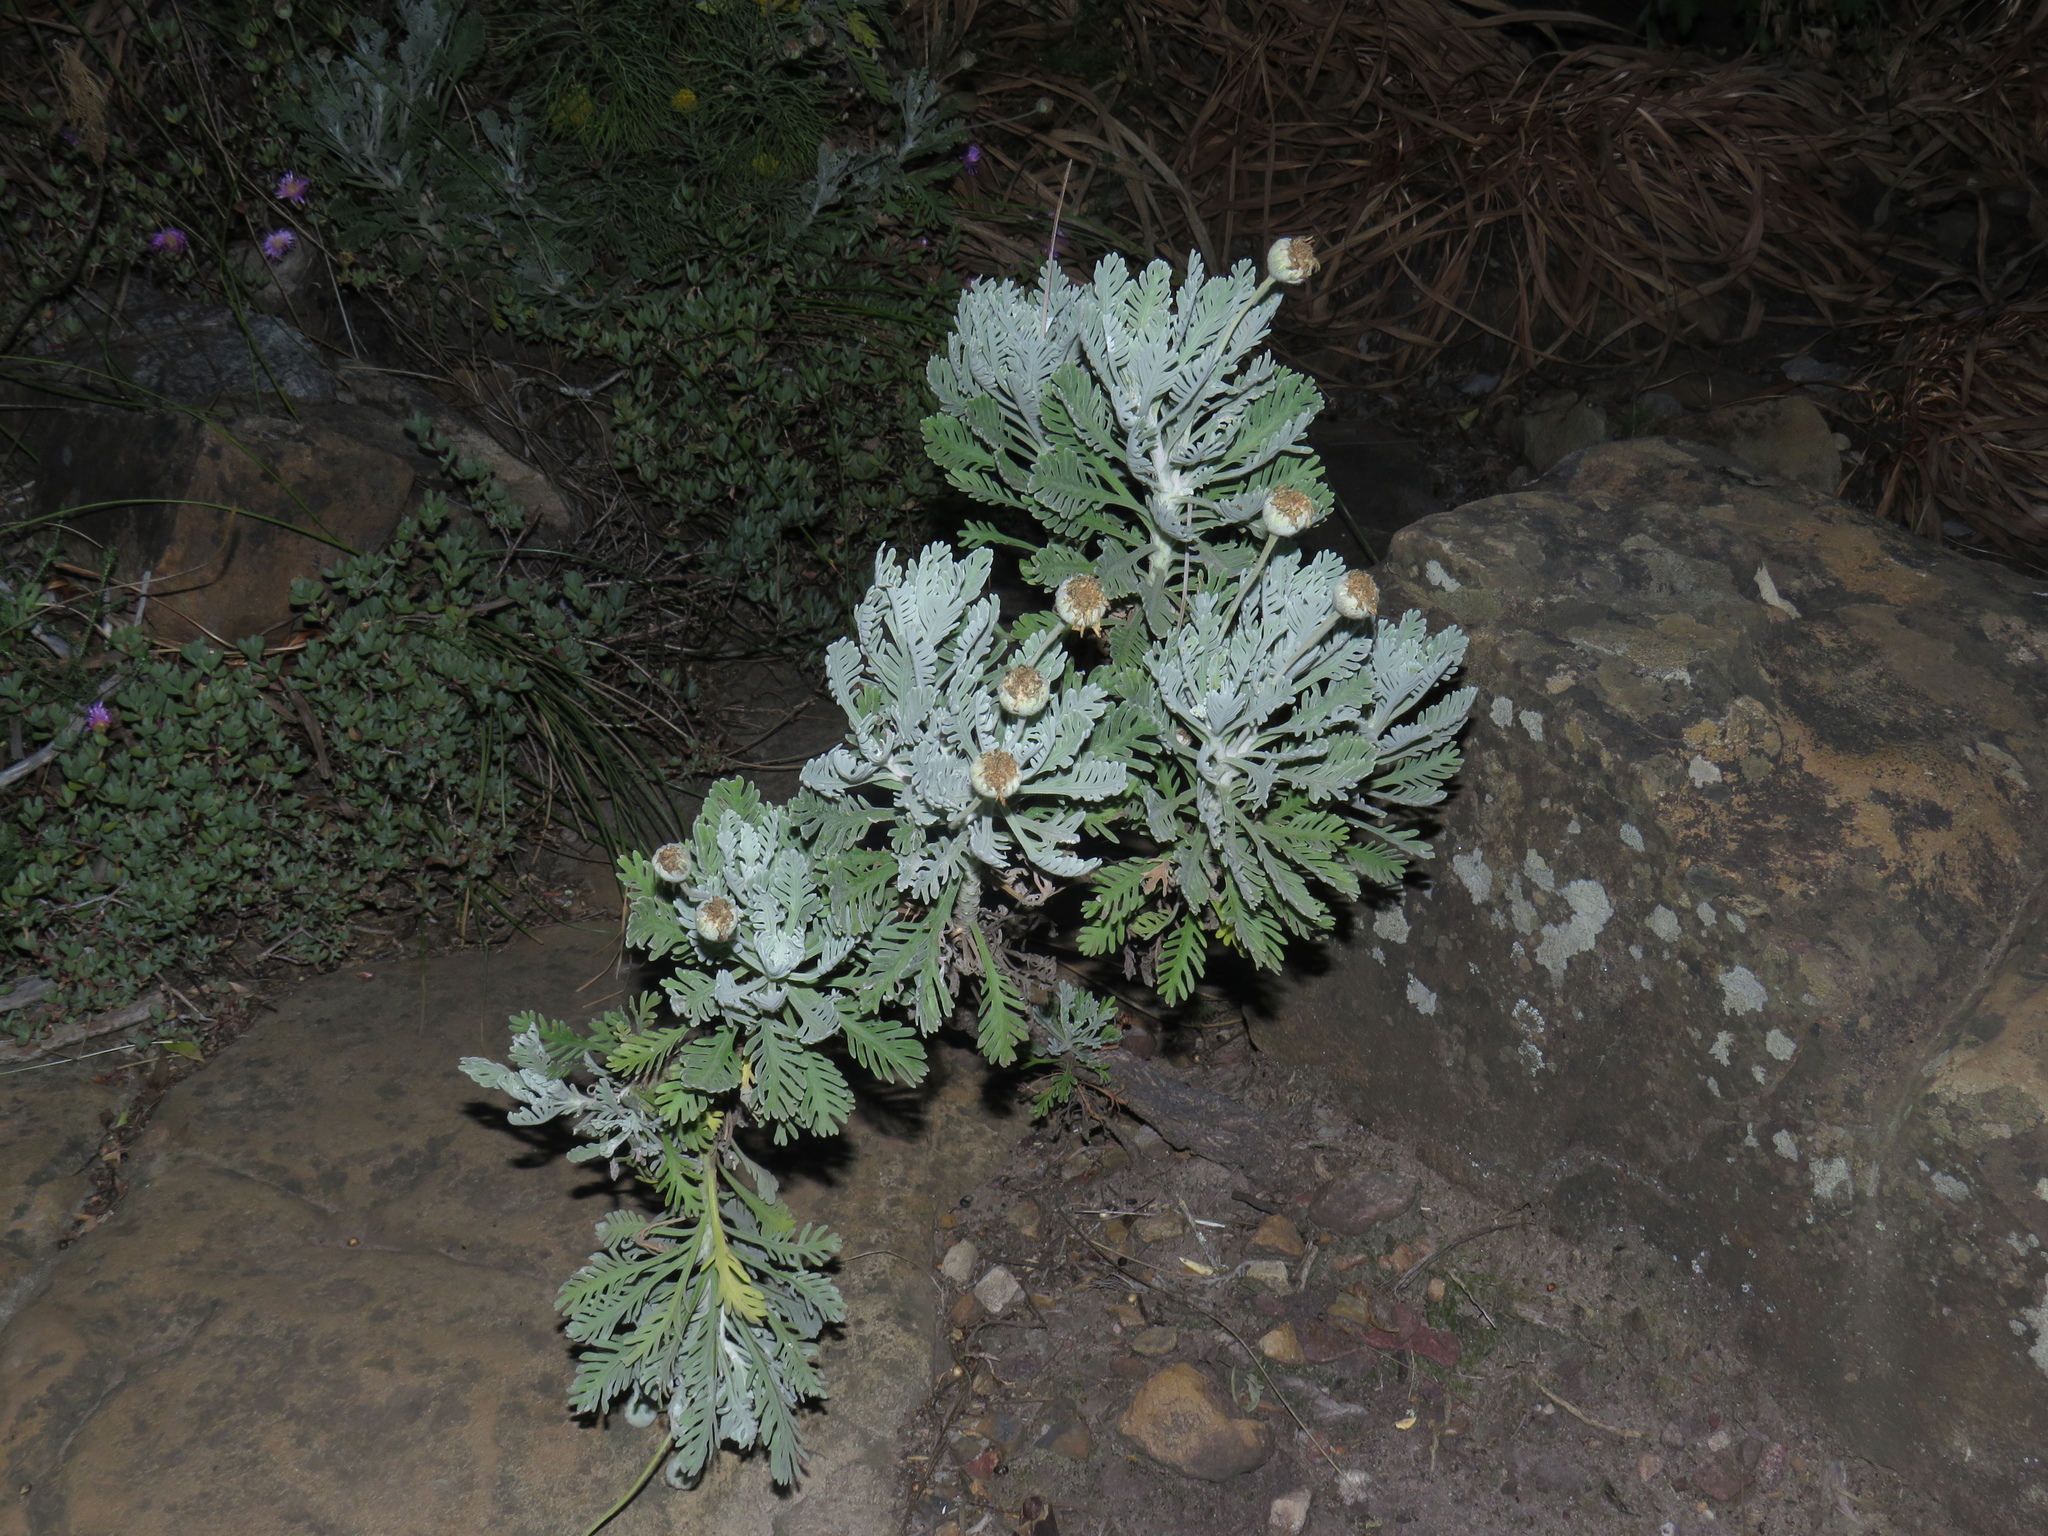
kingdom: Plantae
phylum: Tracheophyta
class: Magnoliopsida
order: Asterales
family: Asteraceae
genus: Euryops
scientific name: Euryops pectinatus
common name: Gray-leaf euryops
